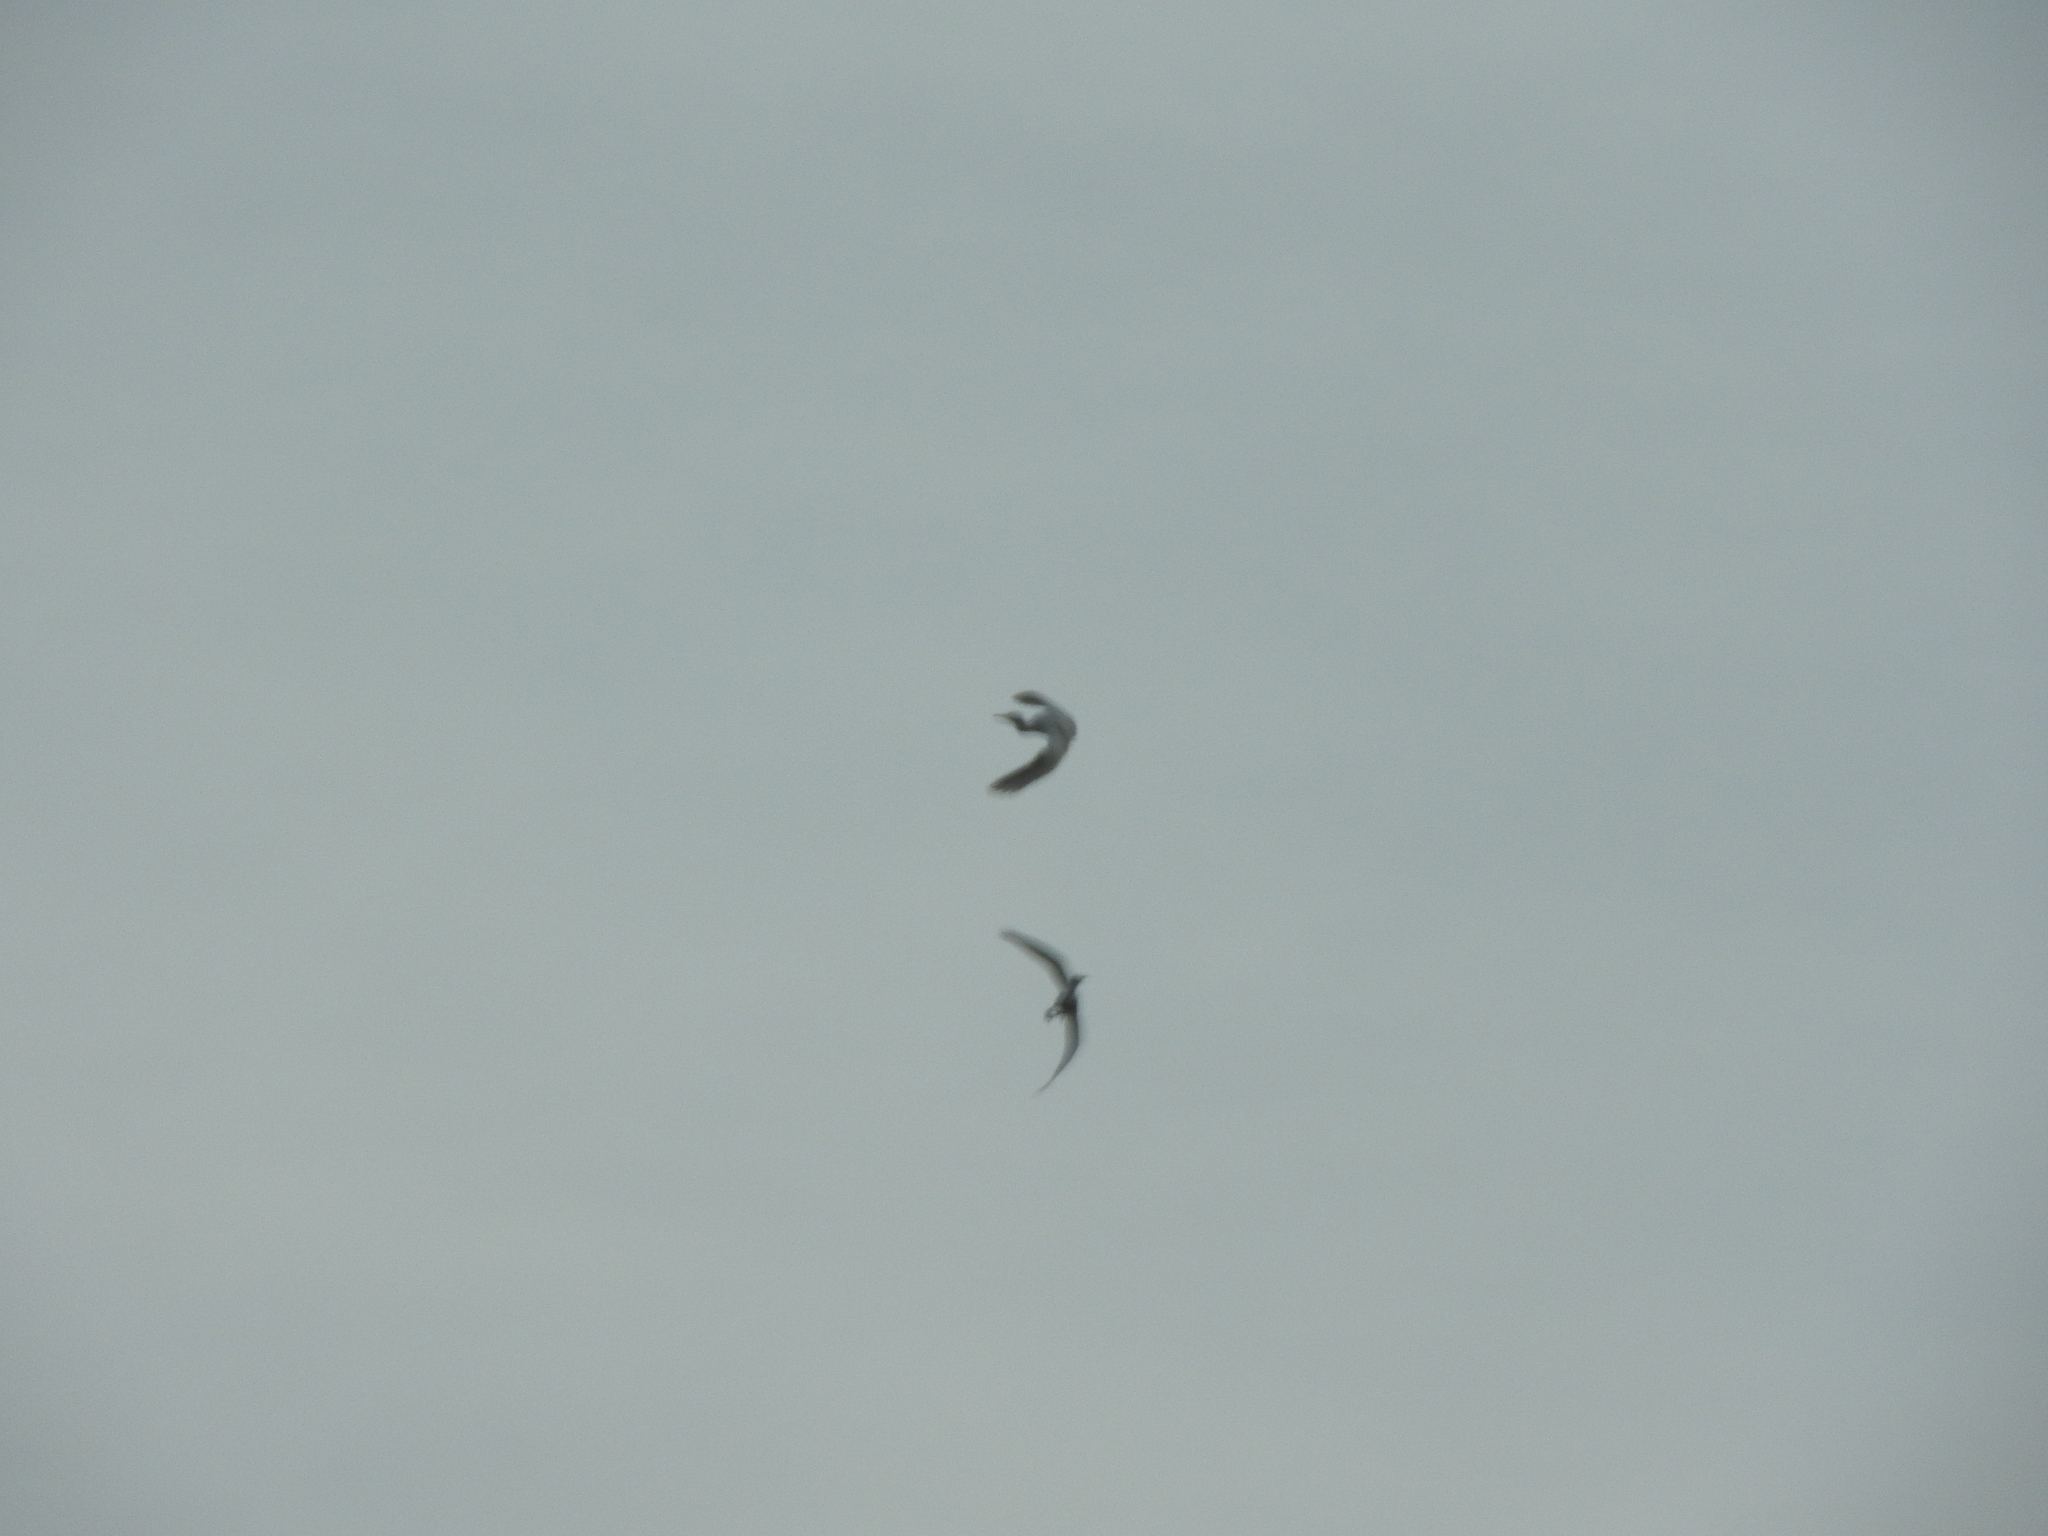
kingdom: Animalia
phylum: Chordata
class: Aves
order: Pelecaniformes
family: Ardeidae
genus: Egretta
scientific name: Egretta
